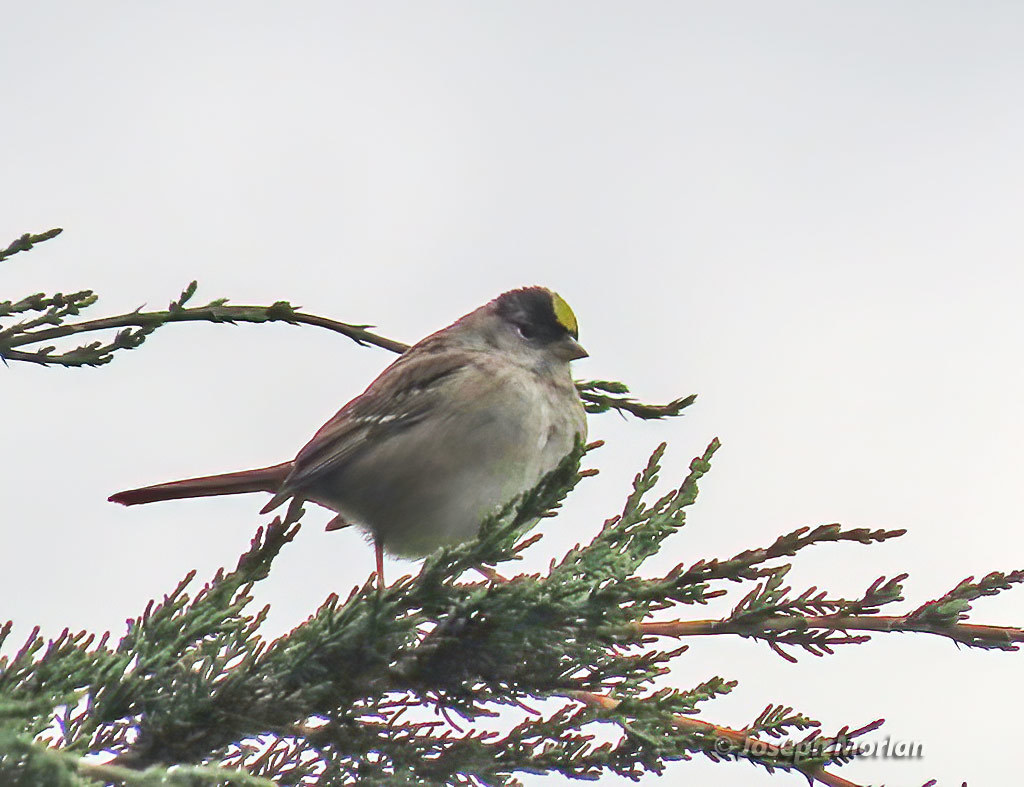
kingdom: Animalia
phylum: Chordata
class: Aves
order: Passeriformes
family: Passerellidae
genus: Zonotrichia
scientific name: Zonotrichia atricapilla
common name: Golden-crowned sparrow
